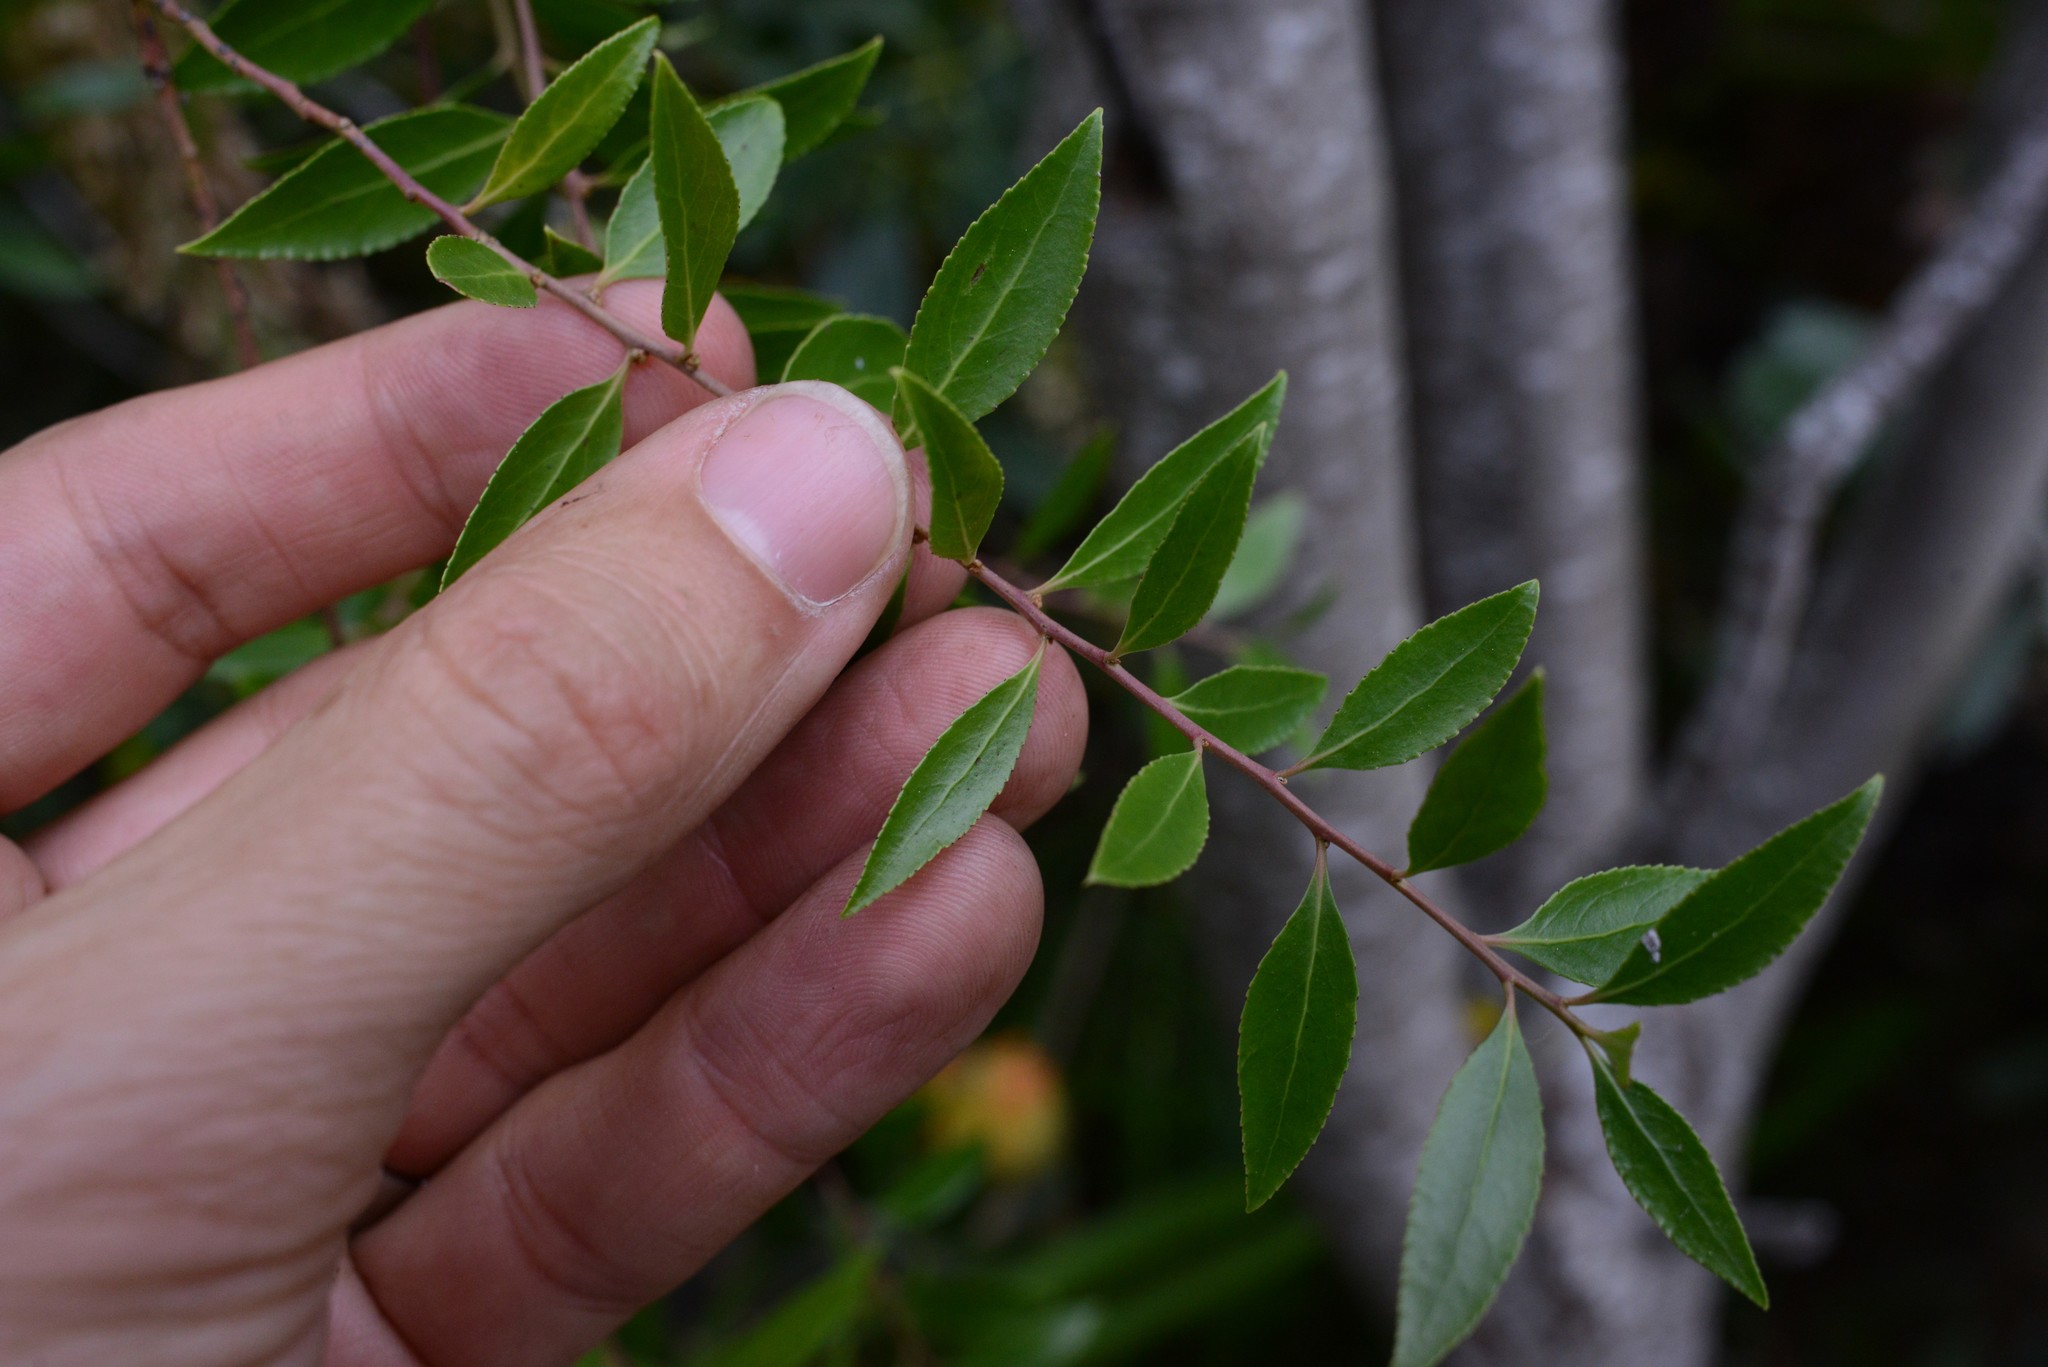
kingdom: Plantae
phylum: Tracheophyta
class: Magnoliopsida
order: Celastrales
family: Celastraceae
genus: Maytenus
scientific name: Maytenus boaria
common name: Mayten
